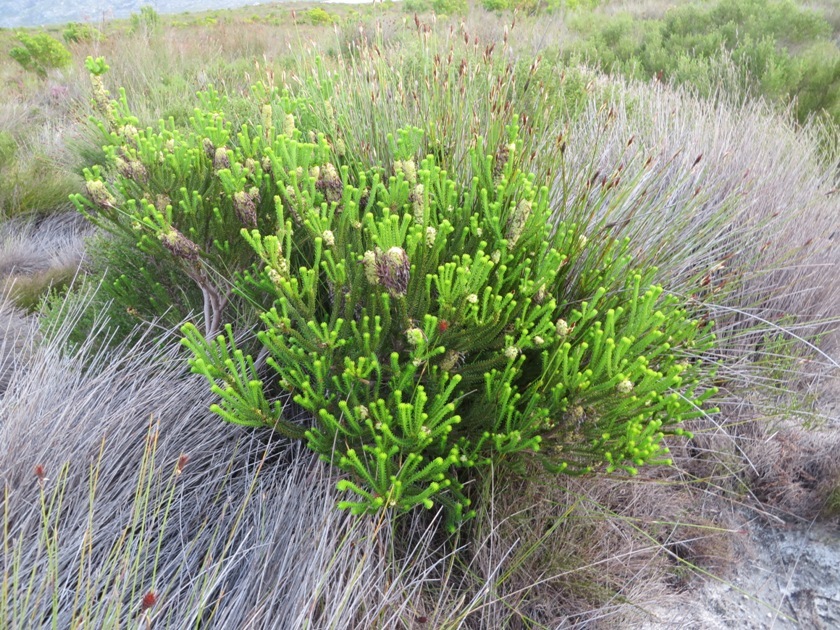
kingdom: Plantae
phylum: Tracheophyta
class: Magnoliopsida
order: Ericales
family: Ericaceae
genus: Erica
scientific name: Erica sessiliflora
